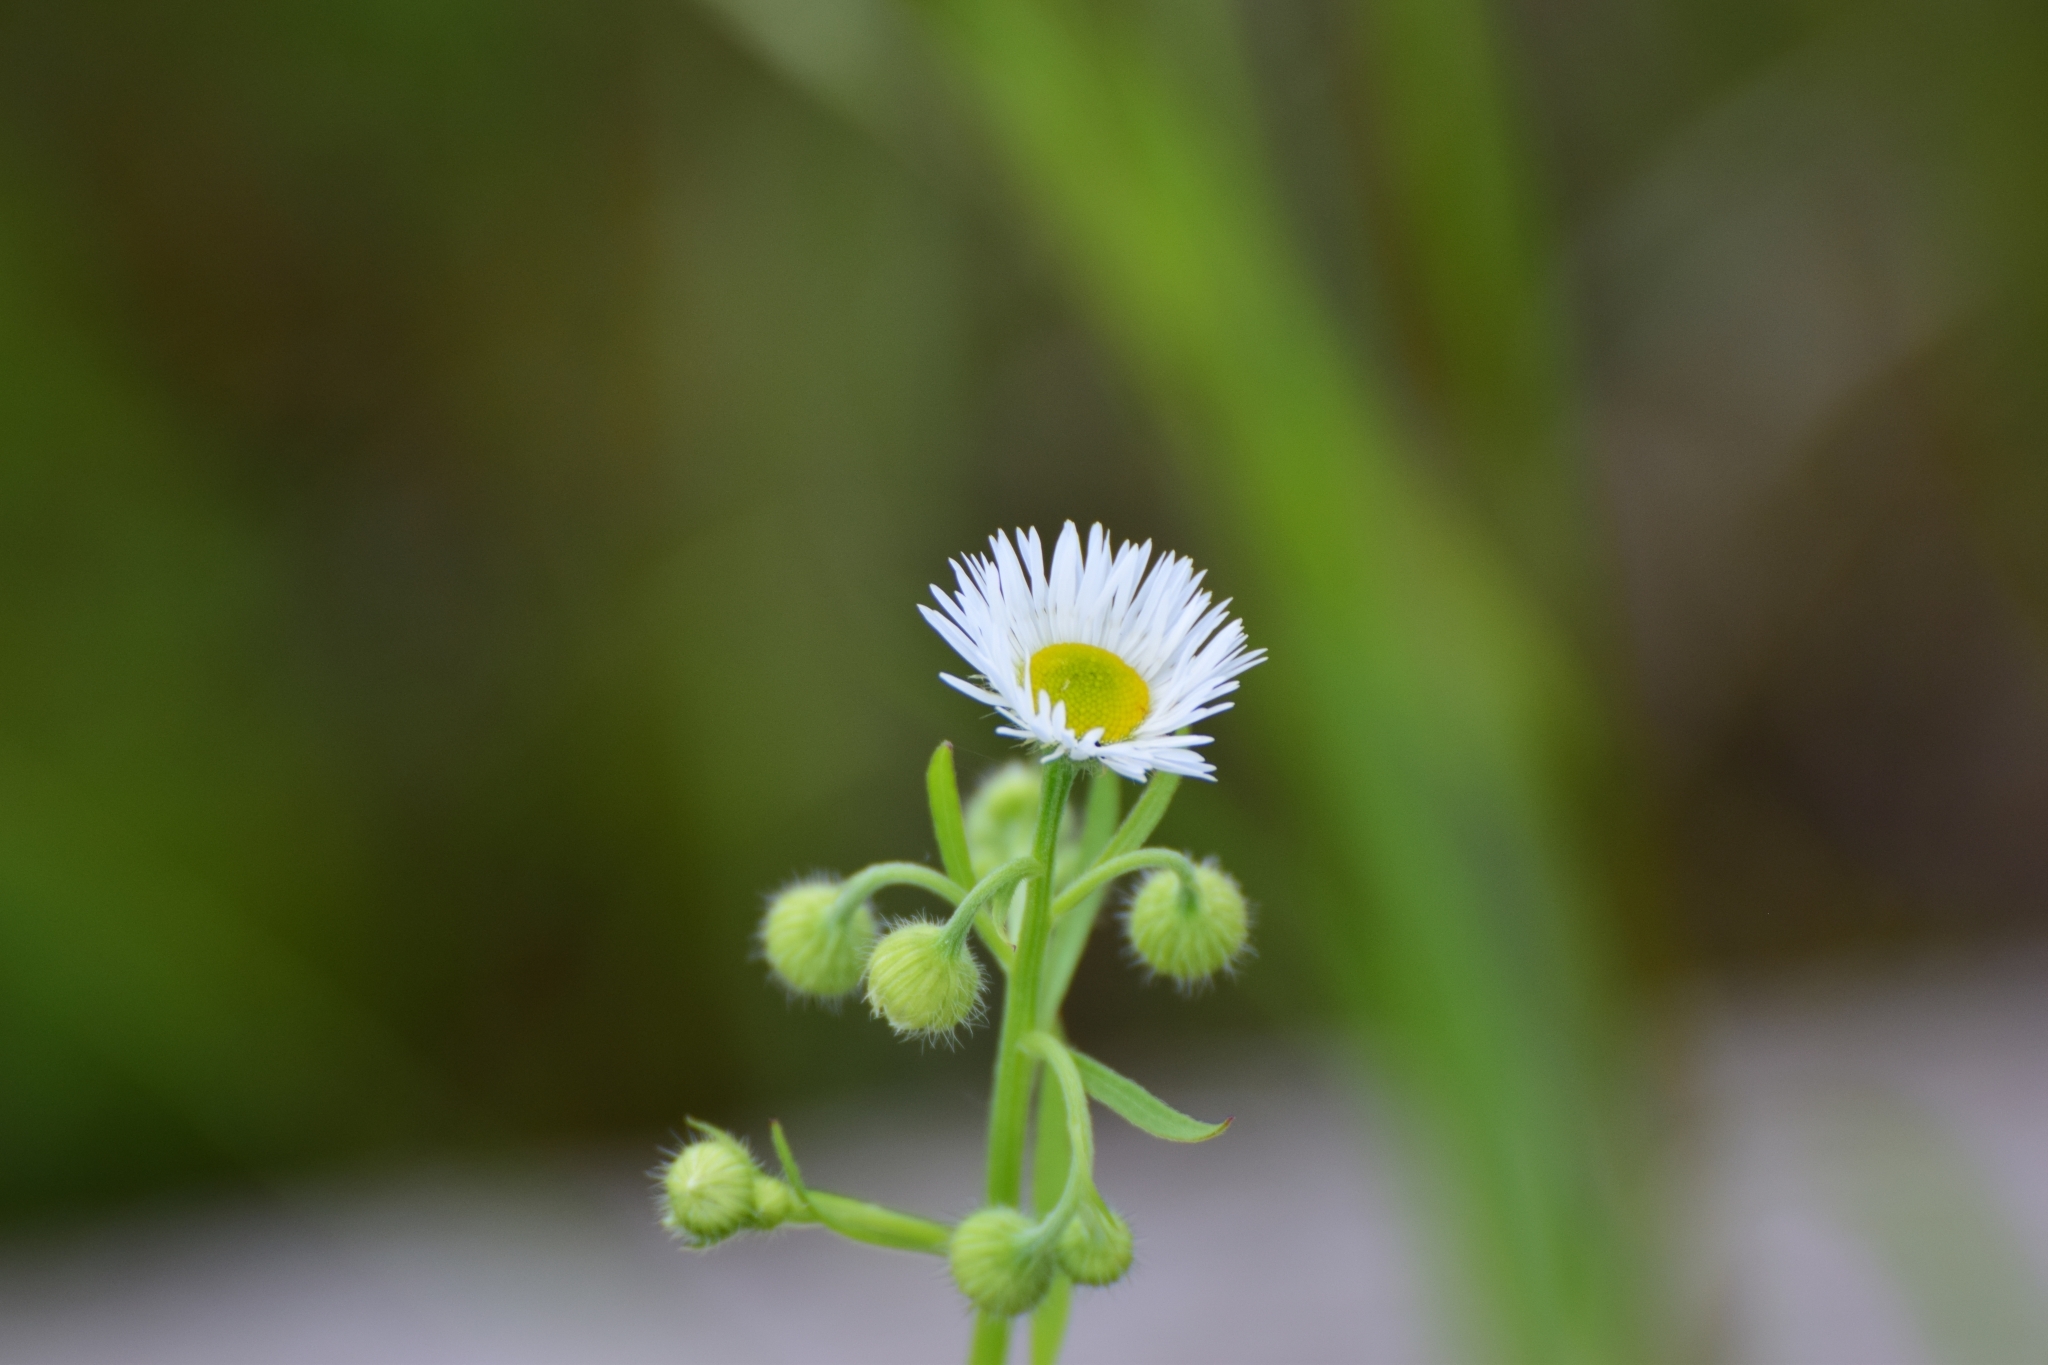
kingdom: Plantae
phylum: Tracheophyta
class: Magnoliopsida
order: Asterales
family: Asteraceae
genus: Erigeron
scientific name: Erigeron annuus
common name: Tall fleabane
